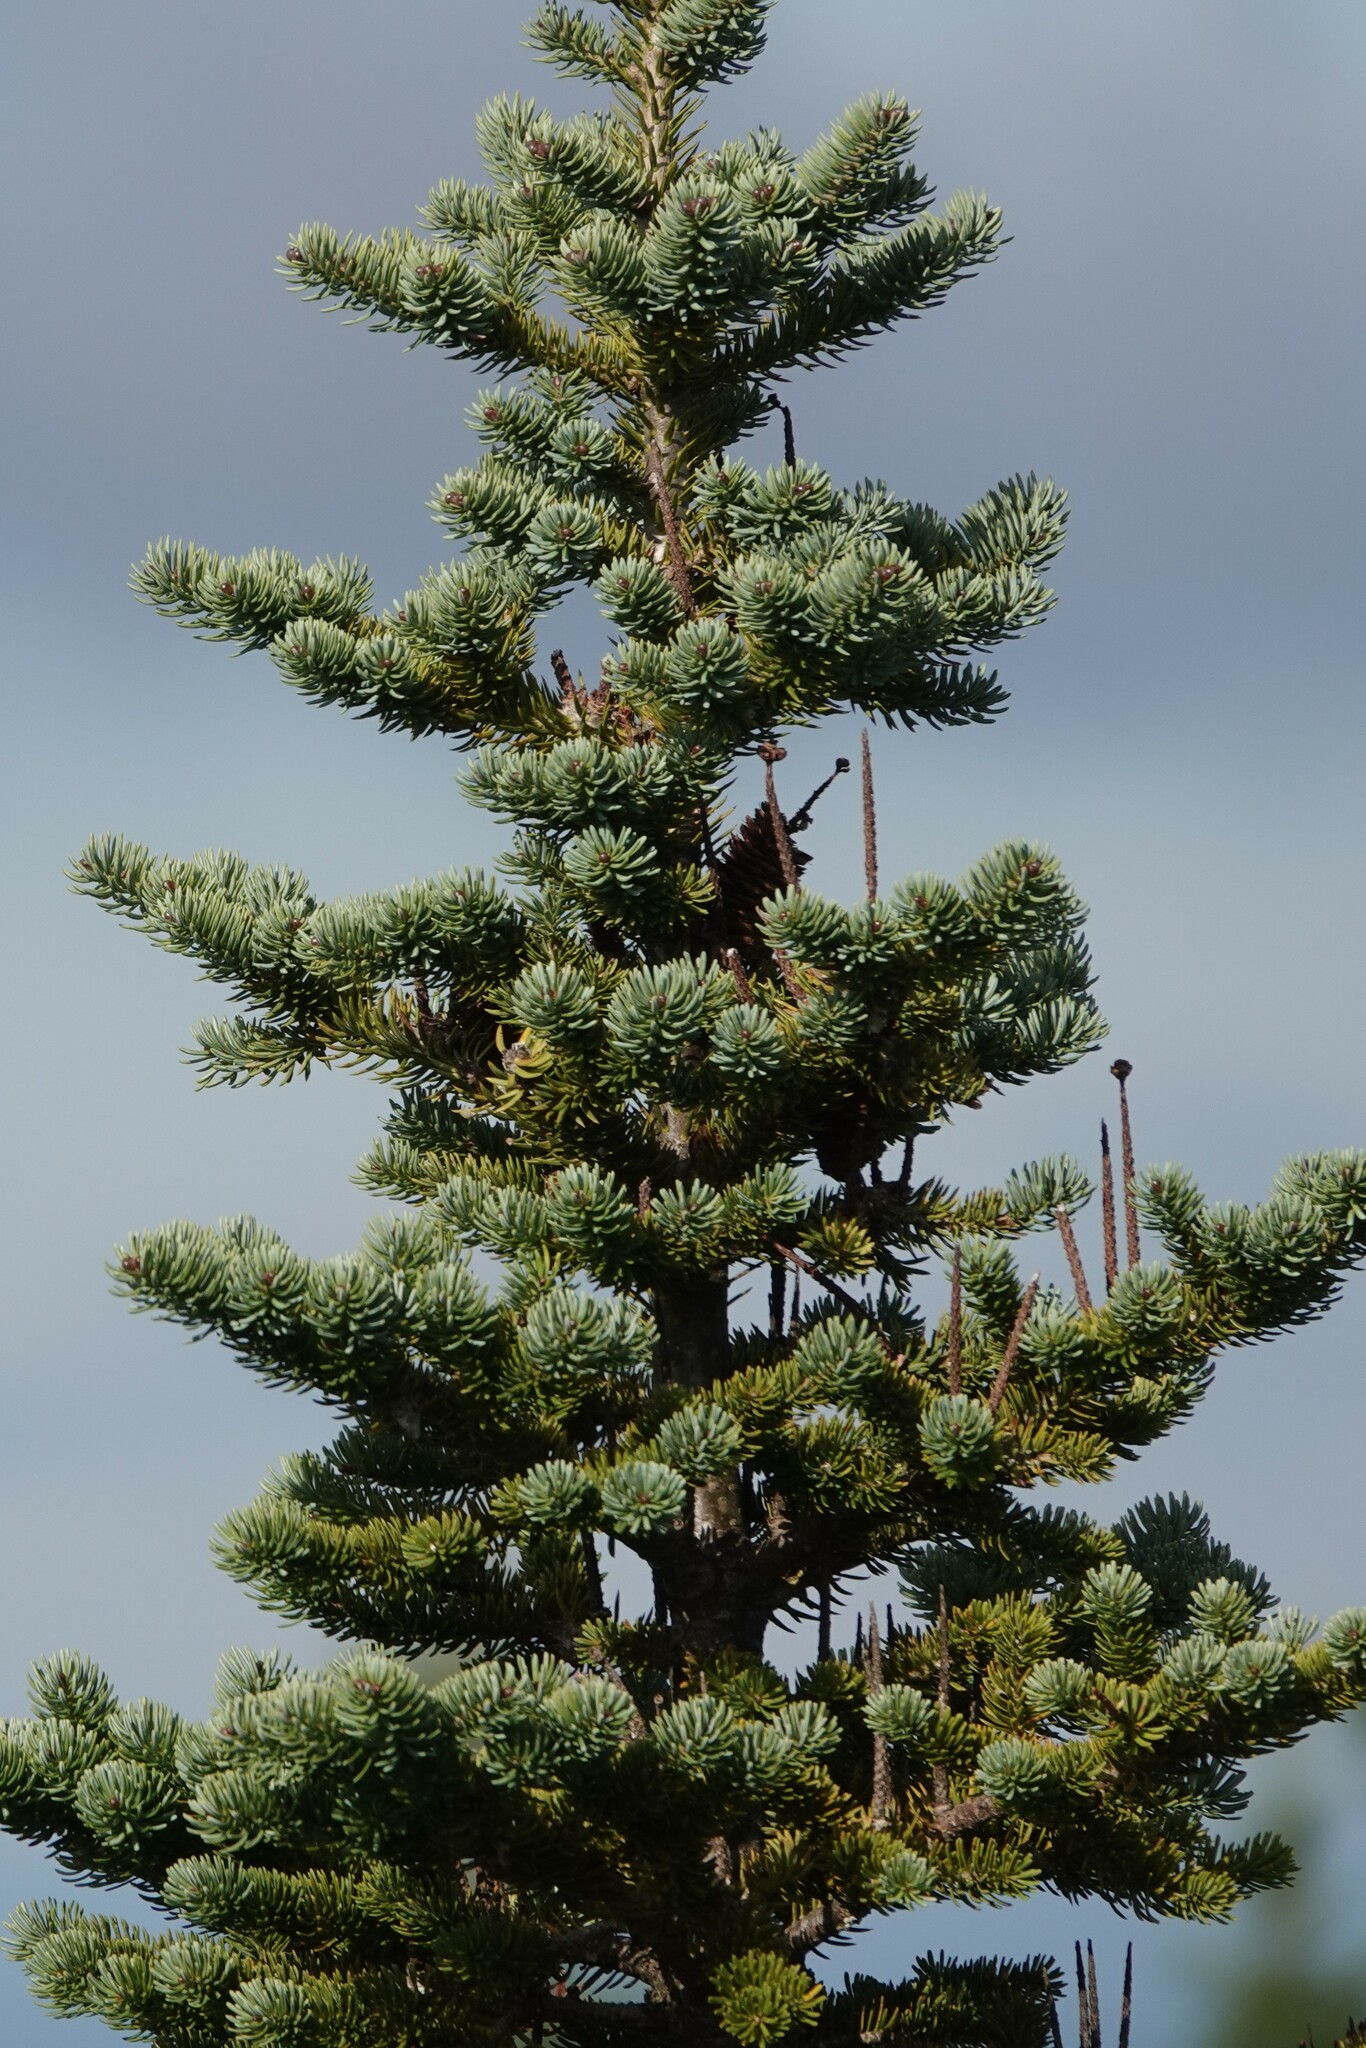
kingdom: Plantae
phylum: Tracheophyta
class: Pinopsida
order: Pinales
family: Pinaceae
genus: Abies
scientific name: Abies balsamea
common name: Balsam fir
